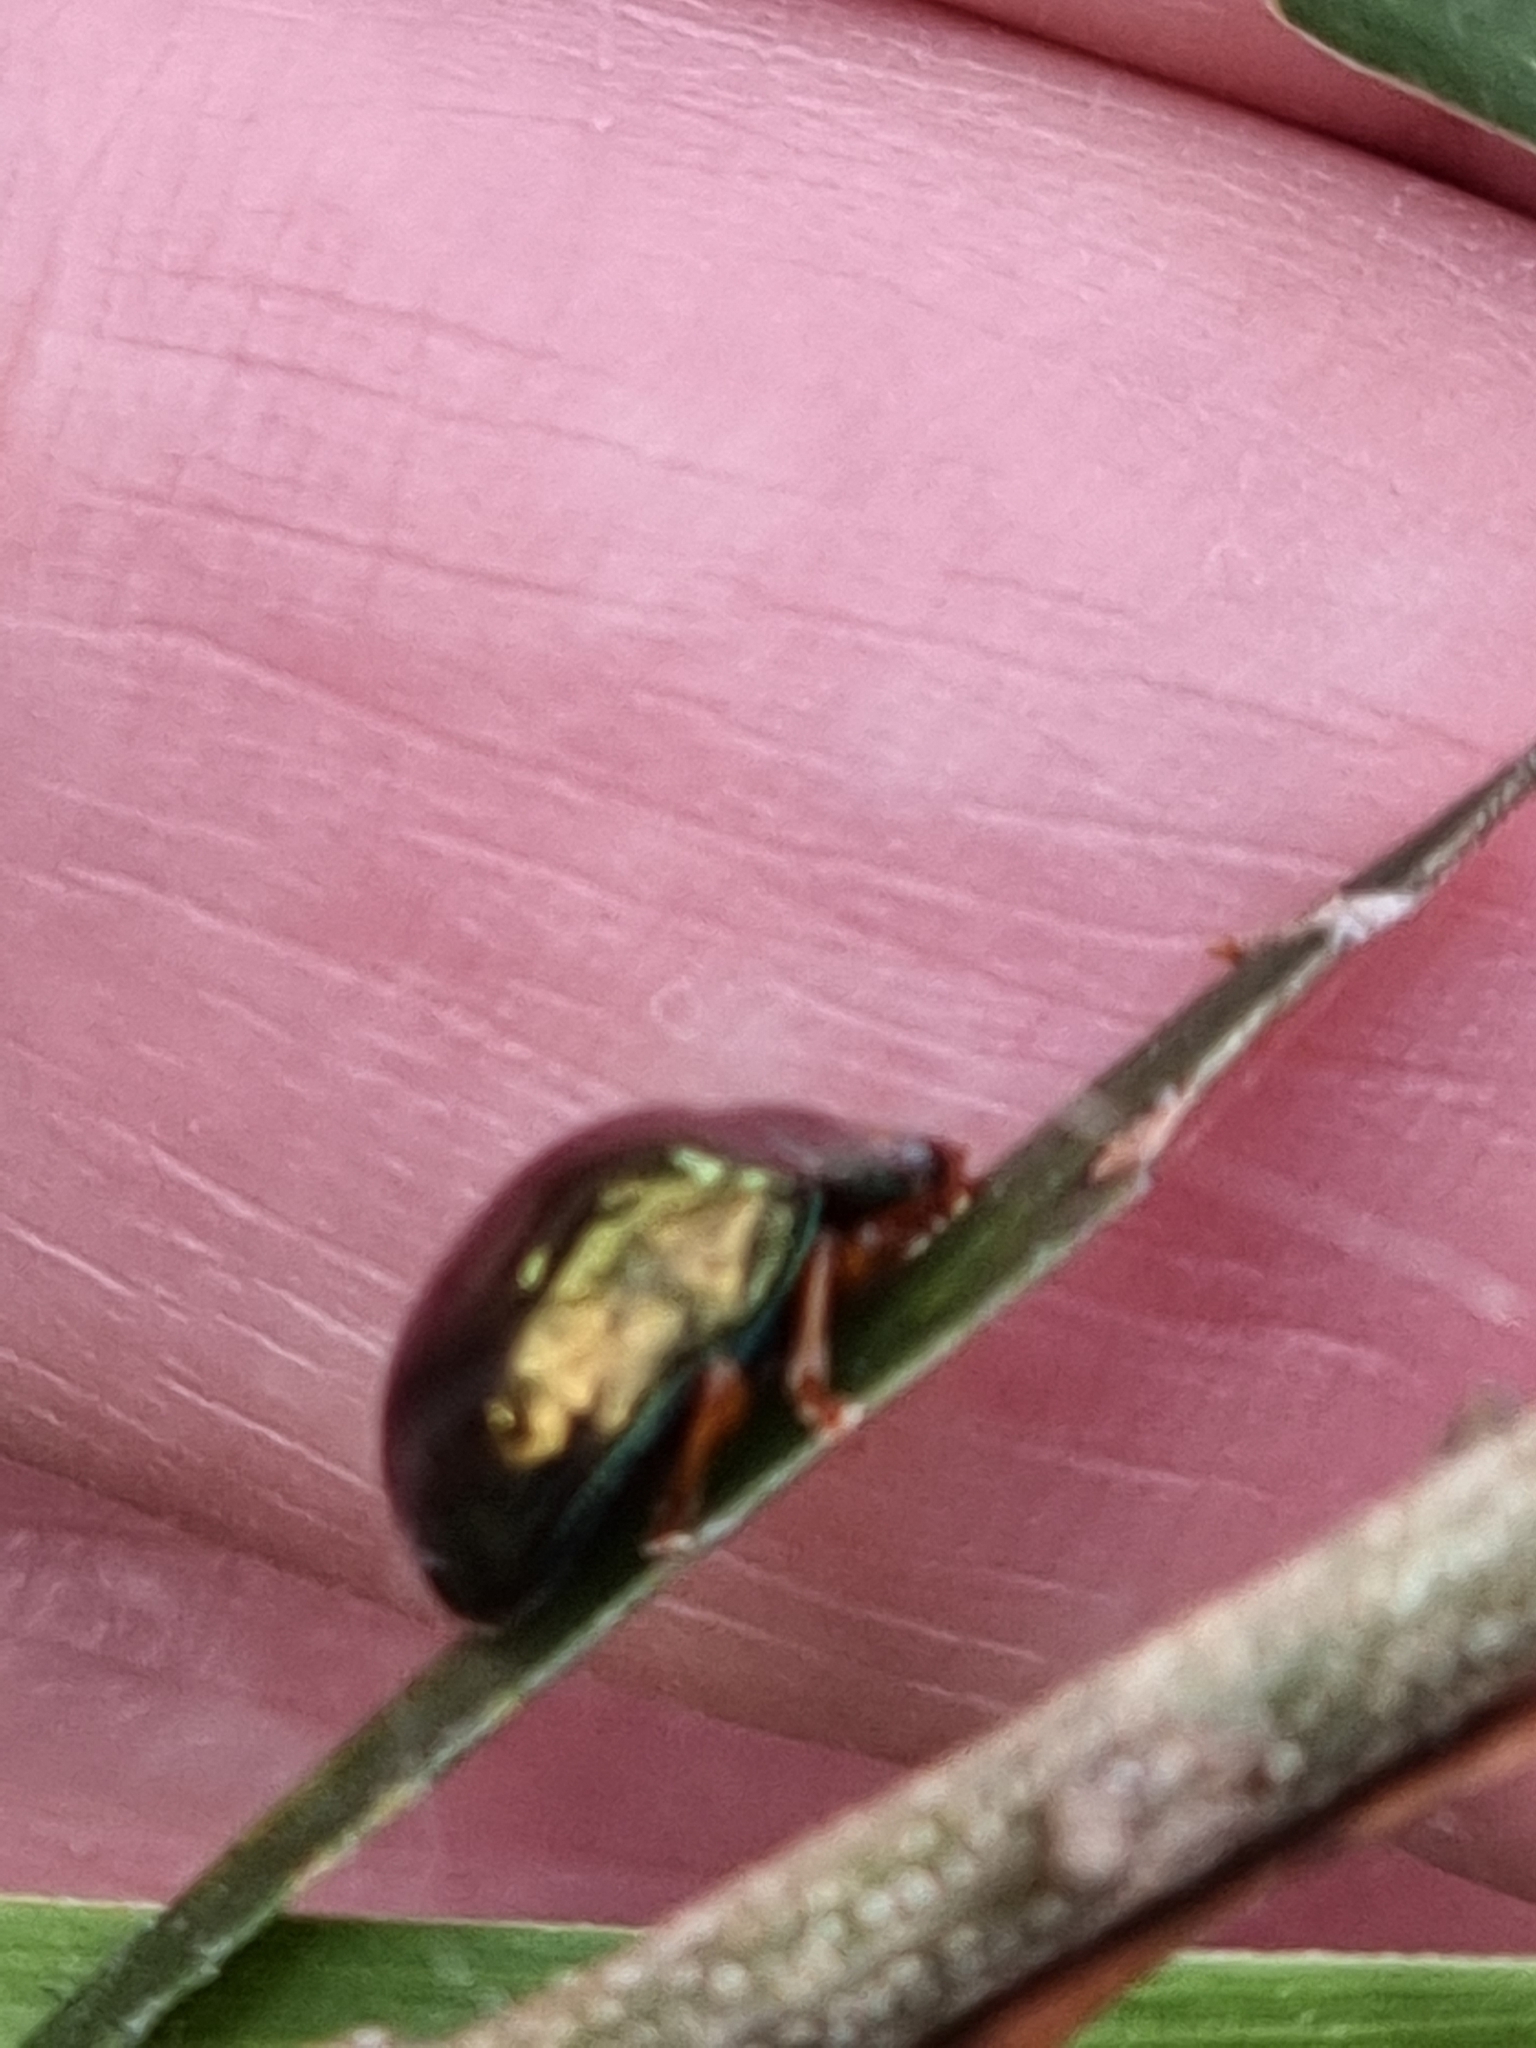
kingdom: Animalia
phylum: Arthropoda
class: Insecta
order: Coleoptera
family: Chrysomelidae
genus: Calomela
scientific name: Calomela
